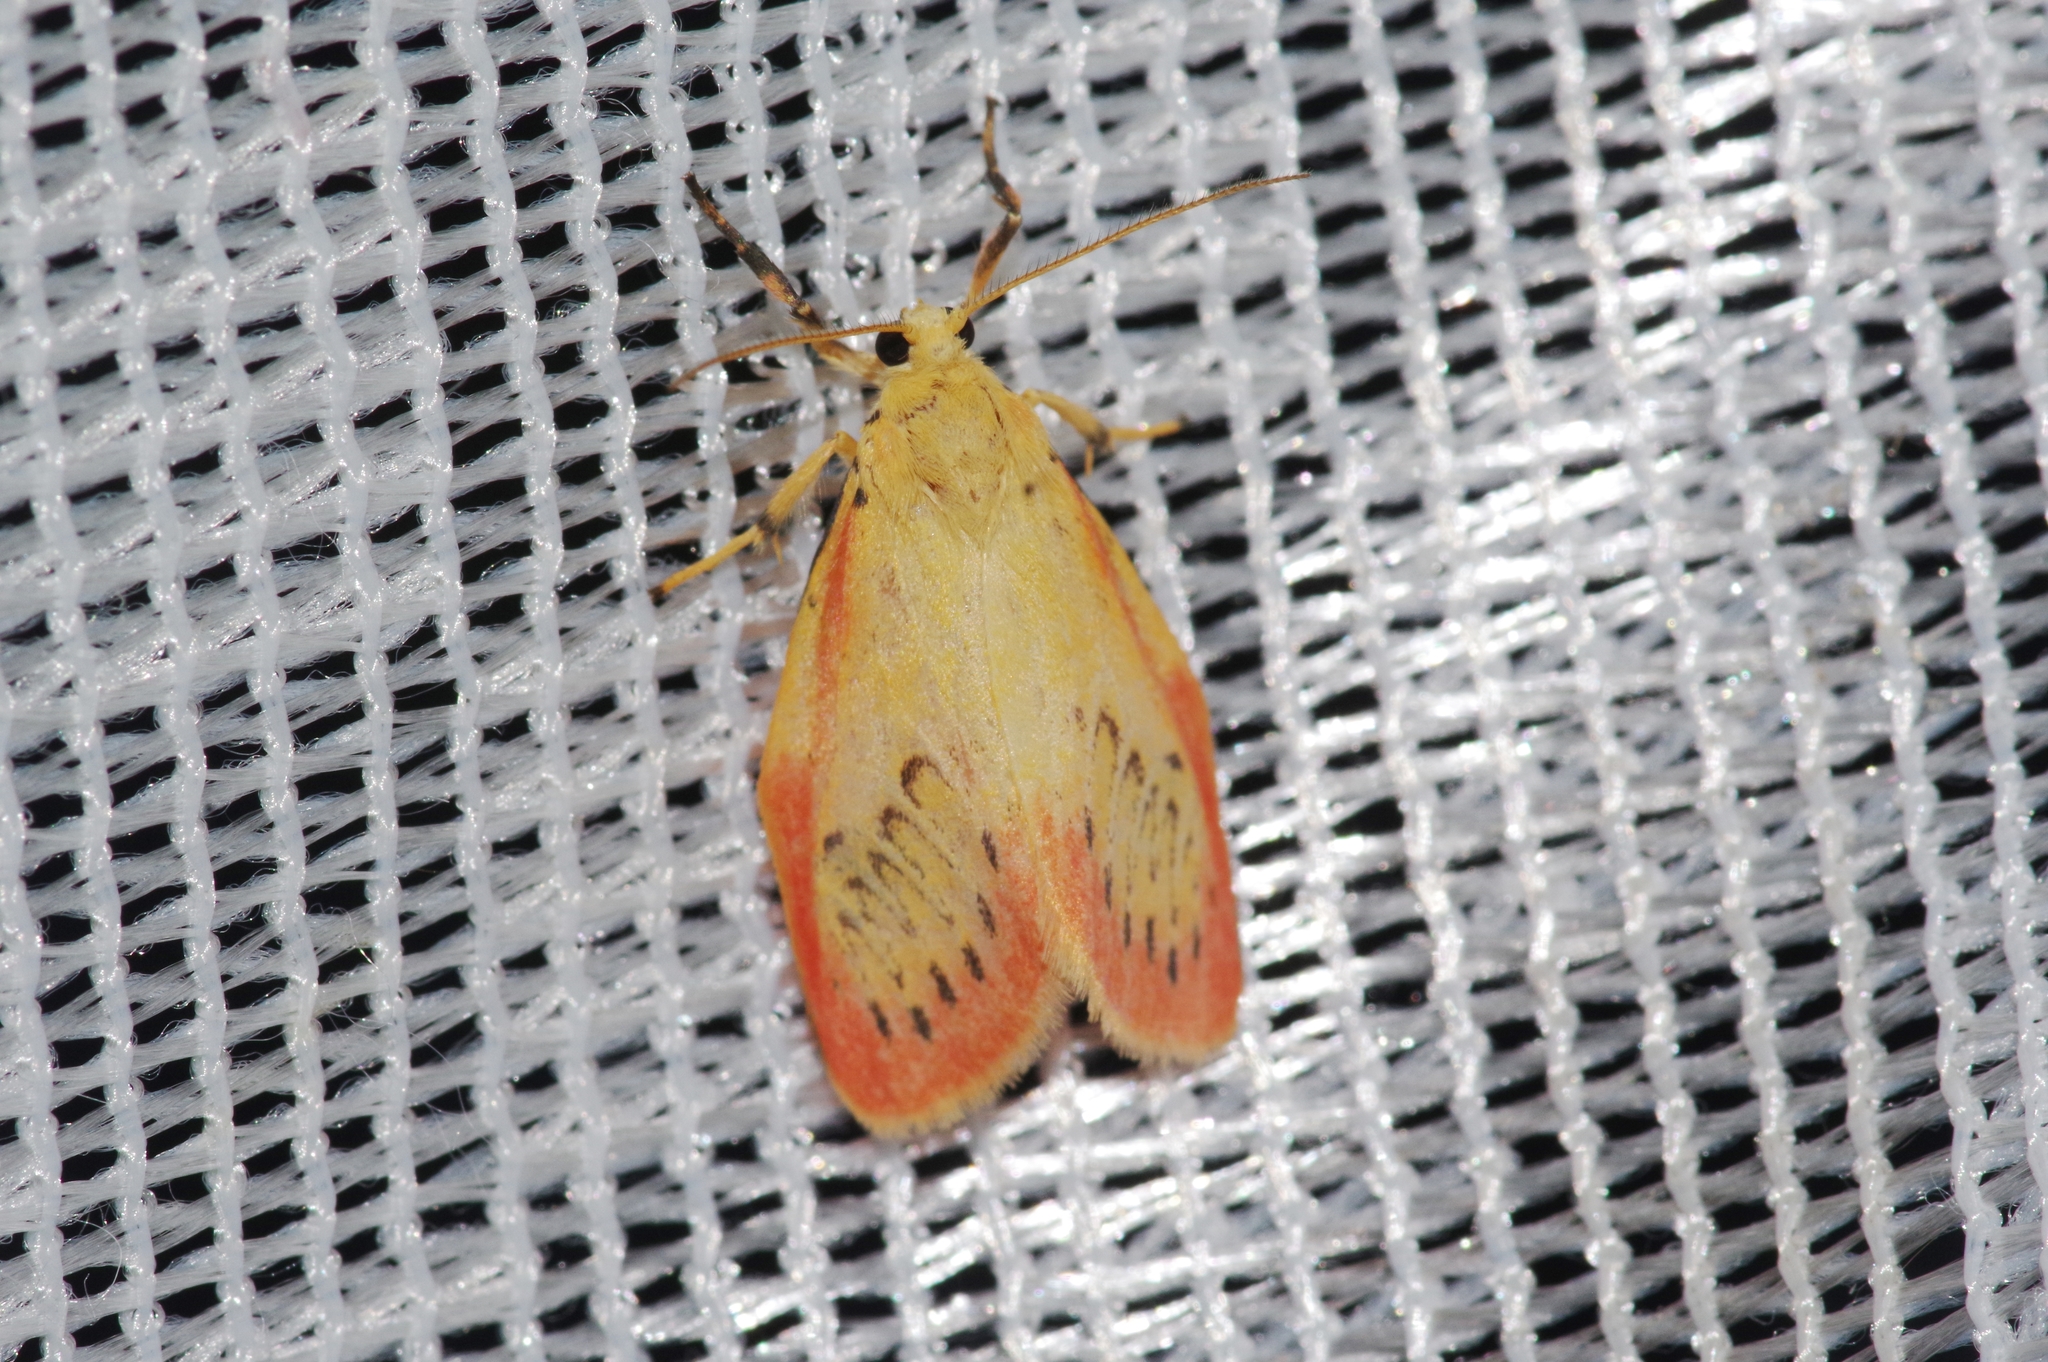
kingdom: Animalia
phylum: Arthropoda
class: Insecta
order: Lepidoptera
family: Erebidae
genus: Miltochrista
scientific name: Miltochrista miniata
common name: Rosy footman
